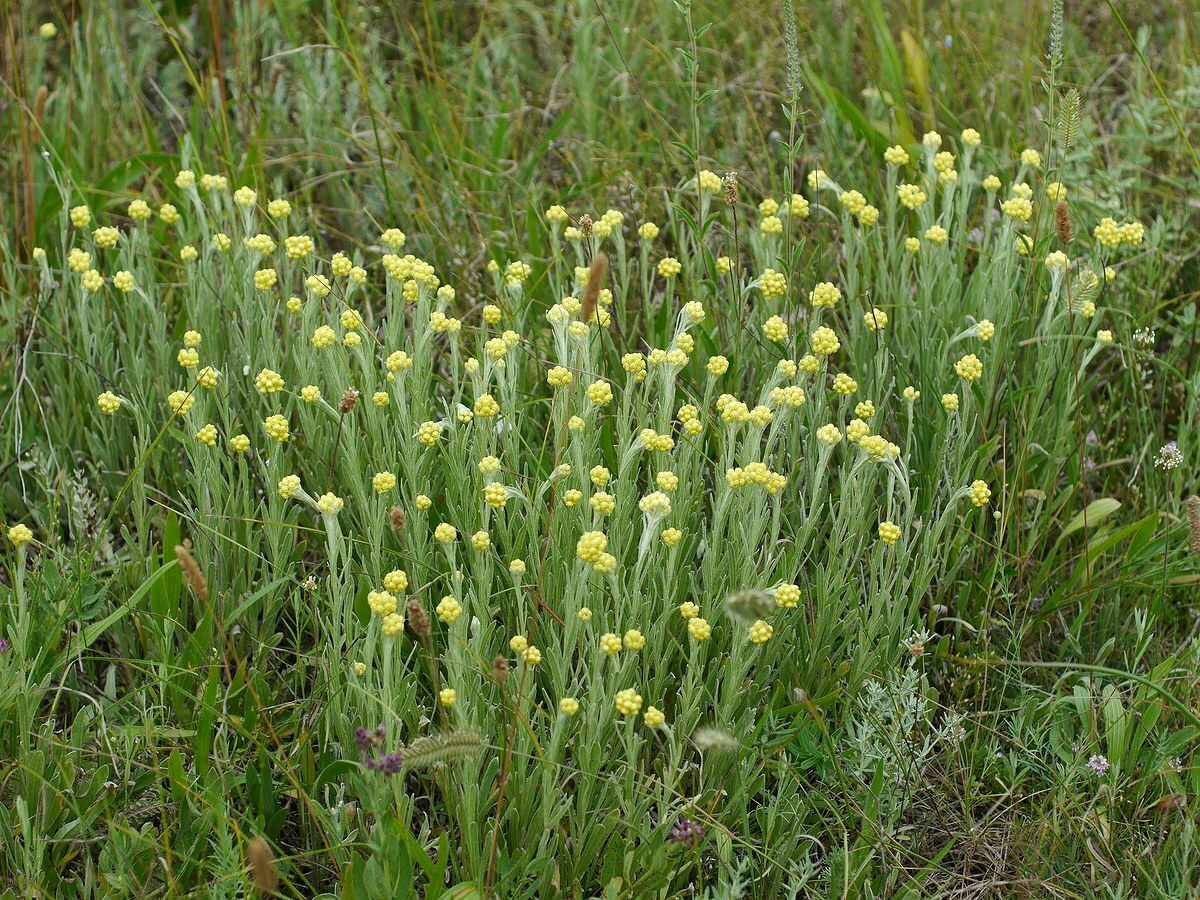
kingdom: Plantae
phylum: Tracheophyta
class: Magnoliopsida
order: Asterales
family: Asteraceae
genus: Helichrysum
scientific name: Helichrysum arenarium
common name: Strawflower
